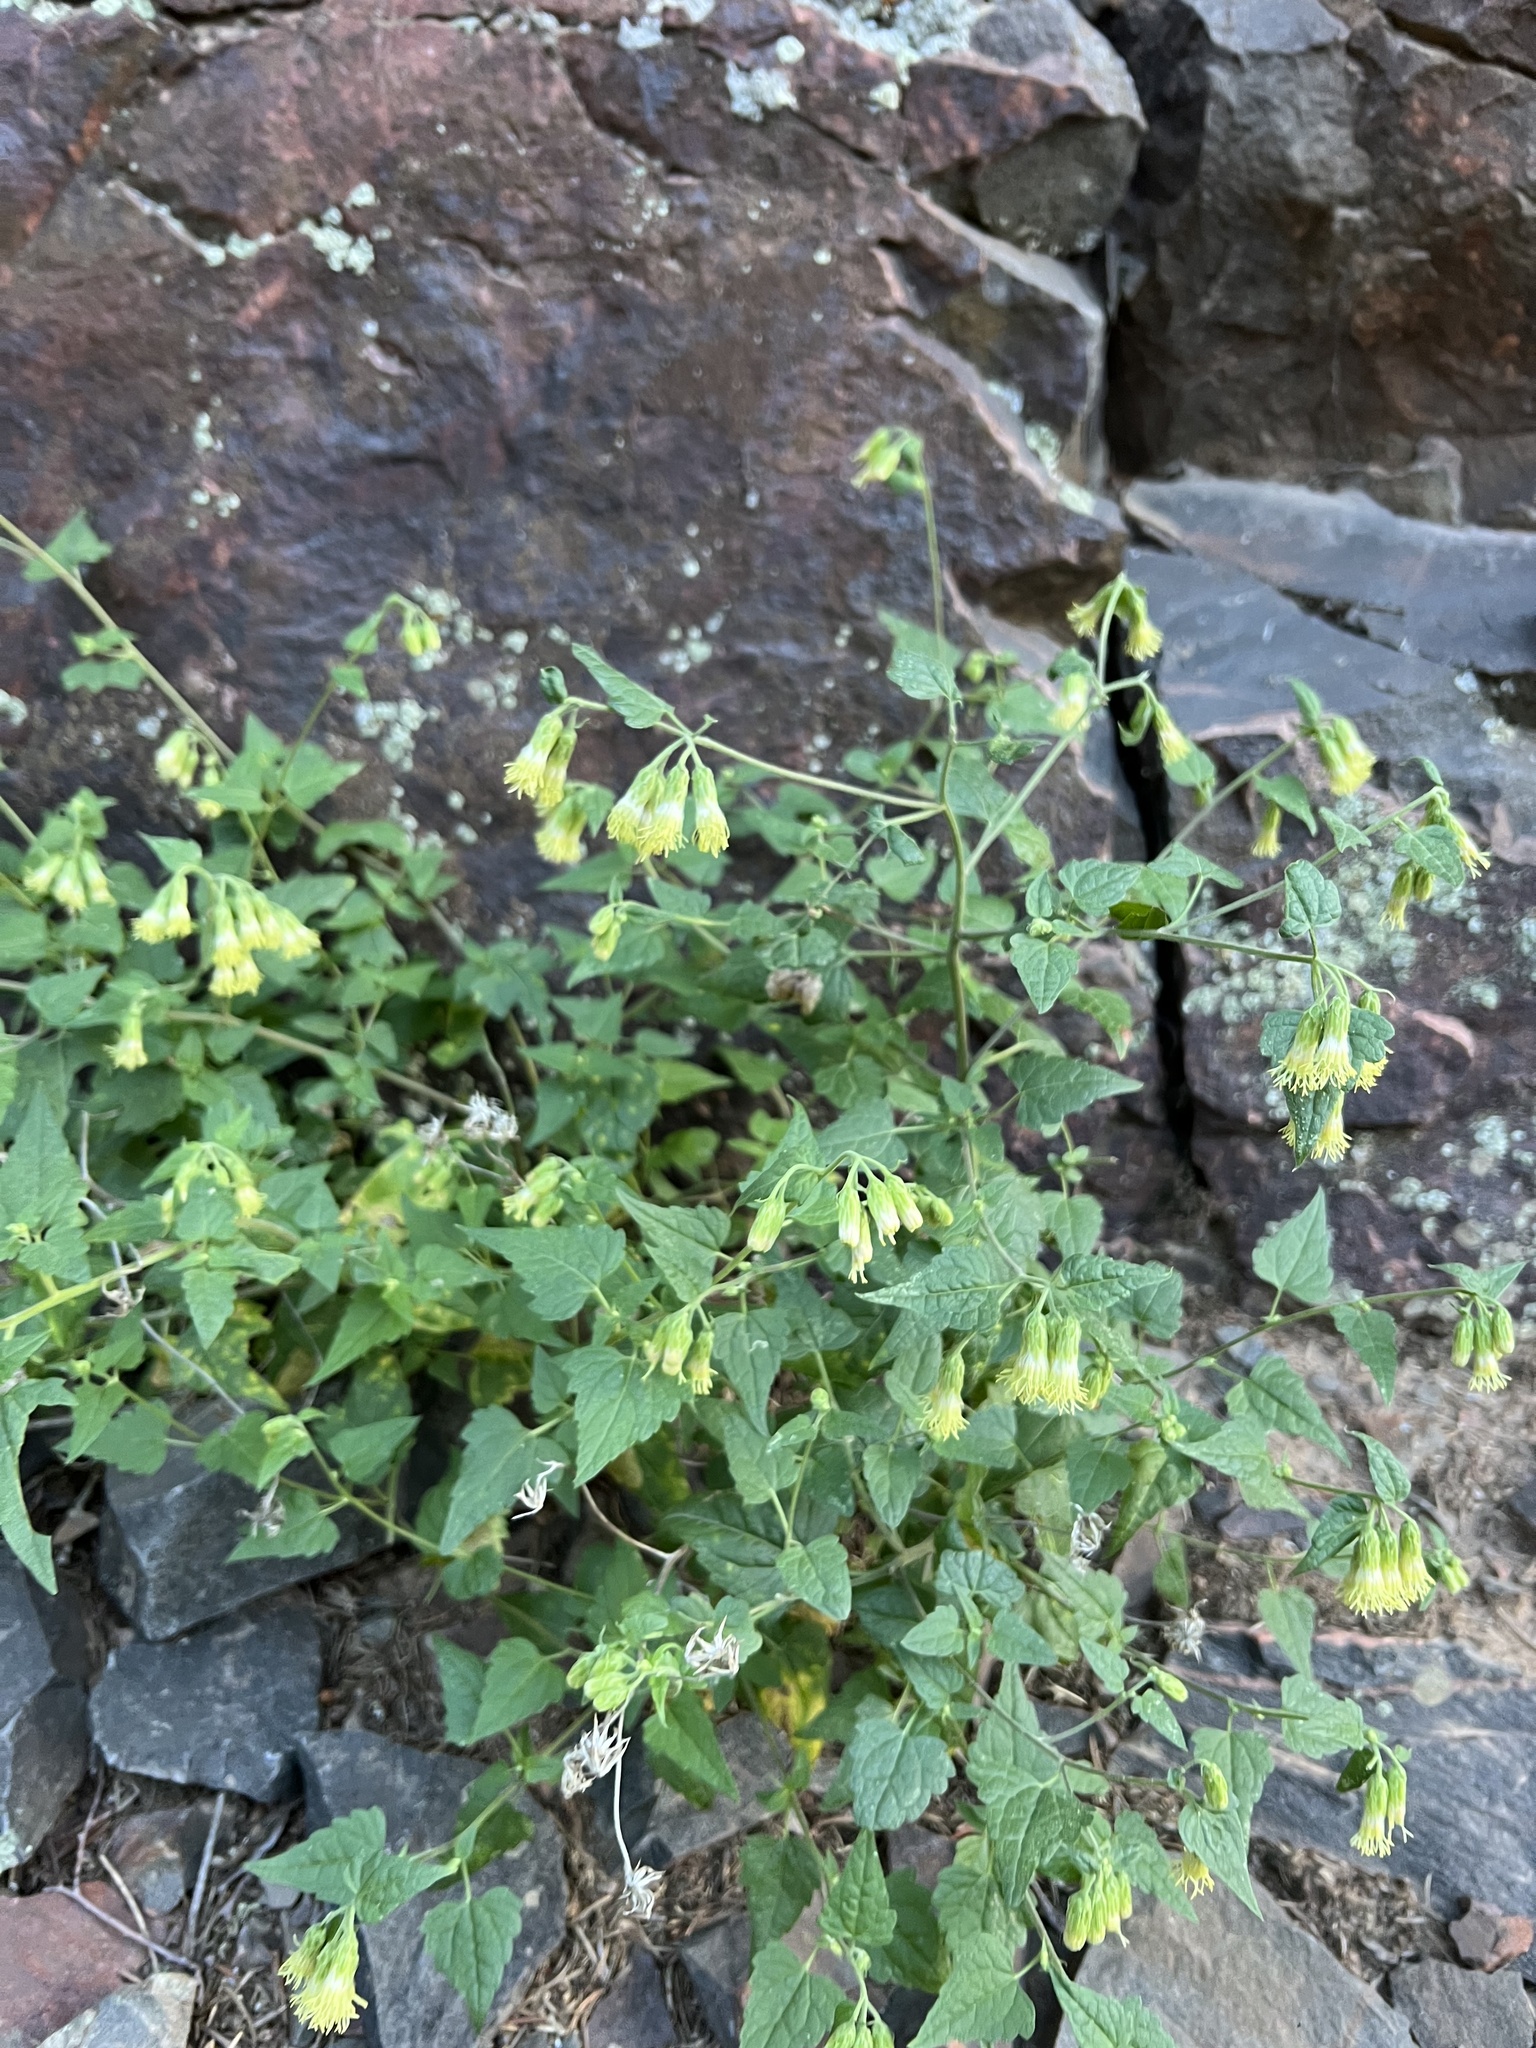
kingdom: Plantae
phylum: Tracheophyta
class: Magnoliopsida
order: Asterales
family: Asteraceae
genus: Brickellia
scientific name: Brickellia grandiflora
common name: Large-flowered brickellia
